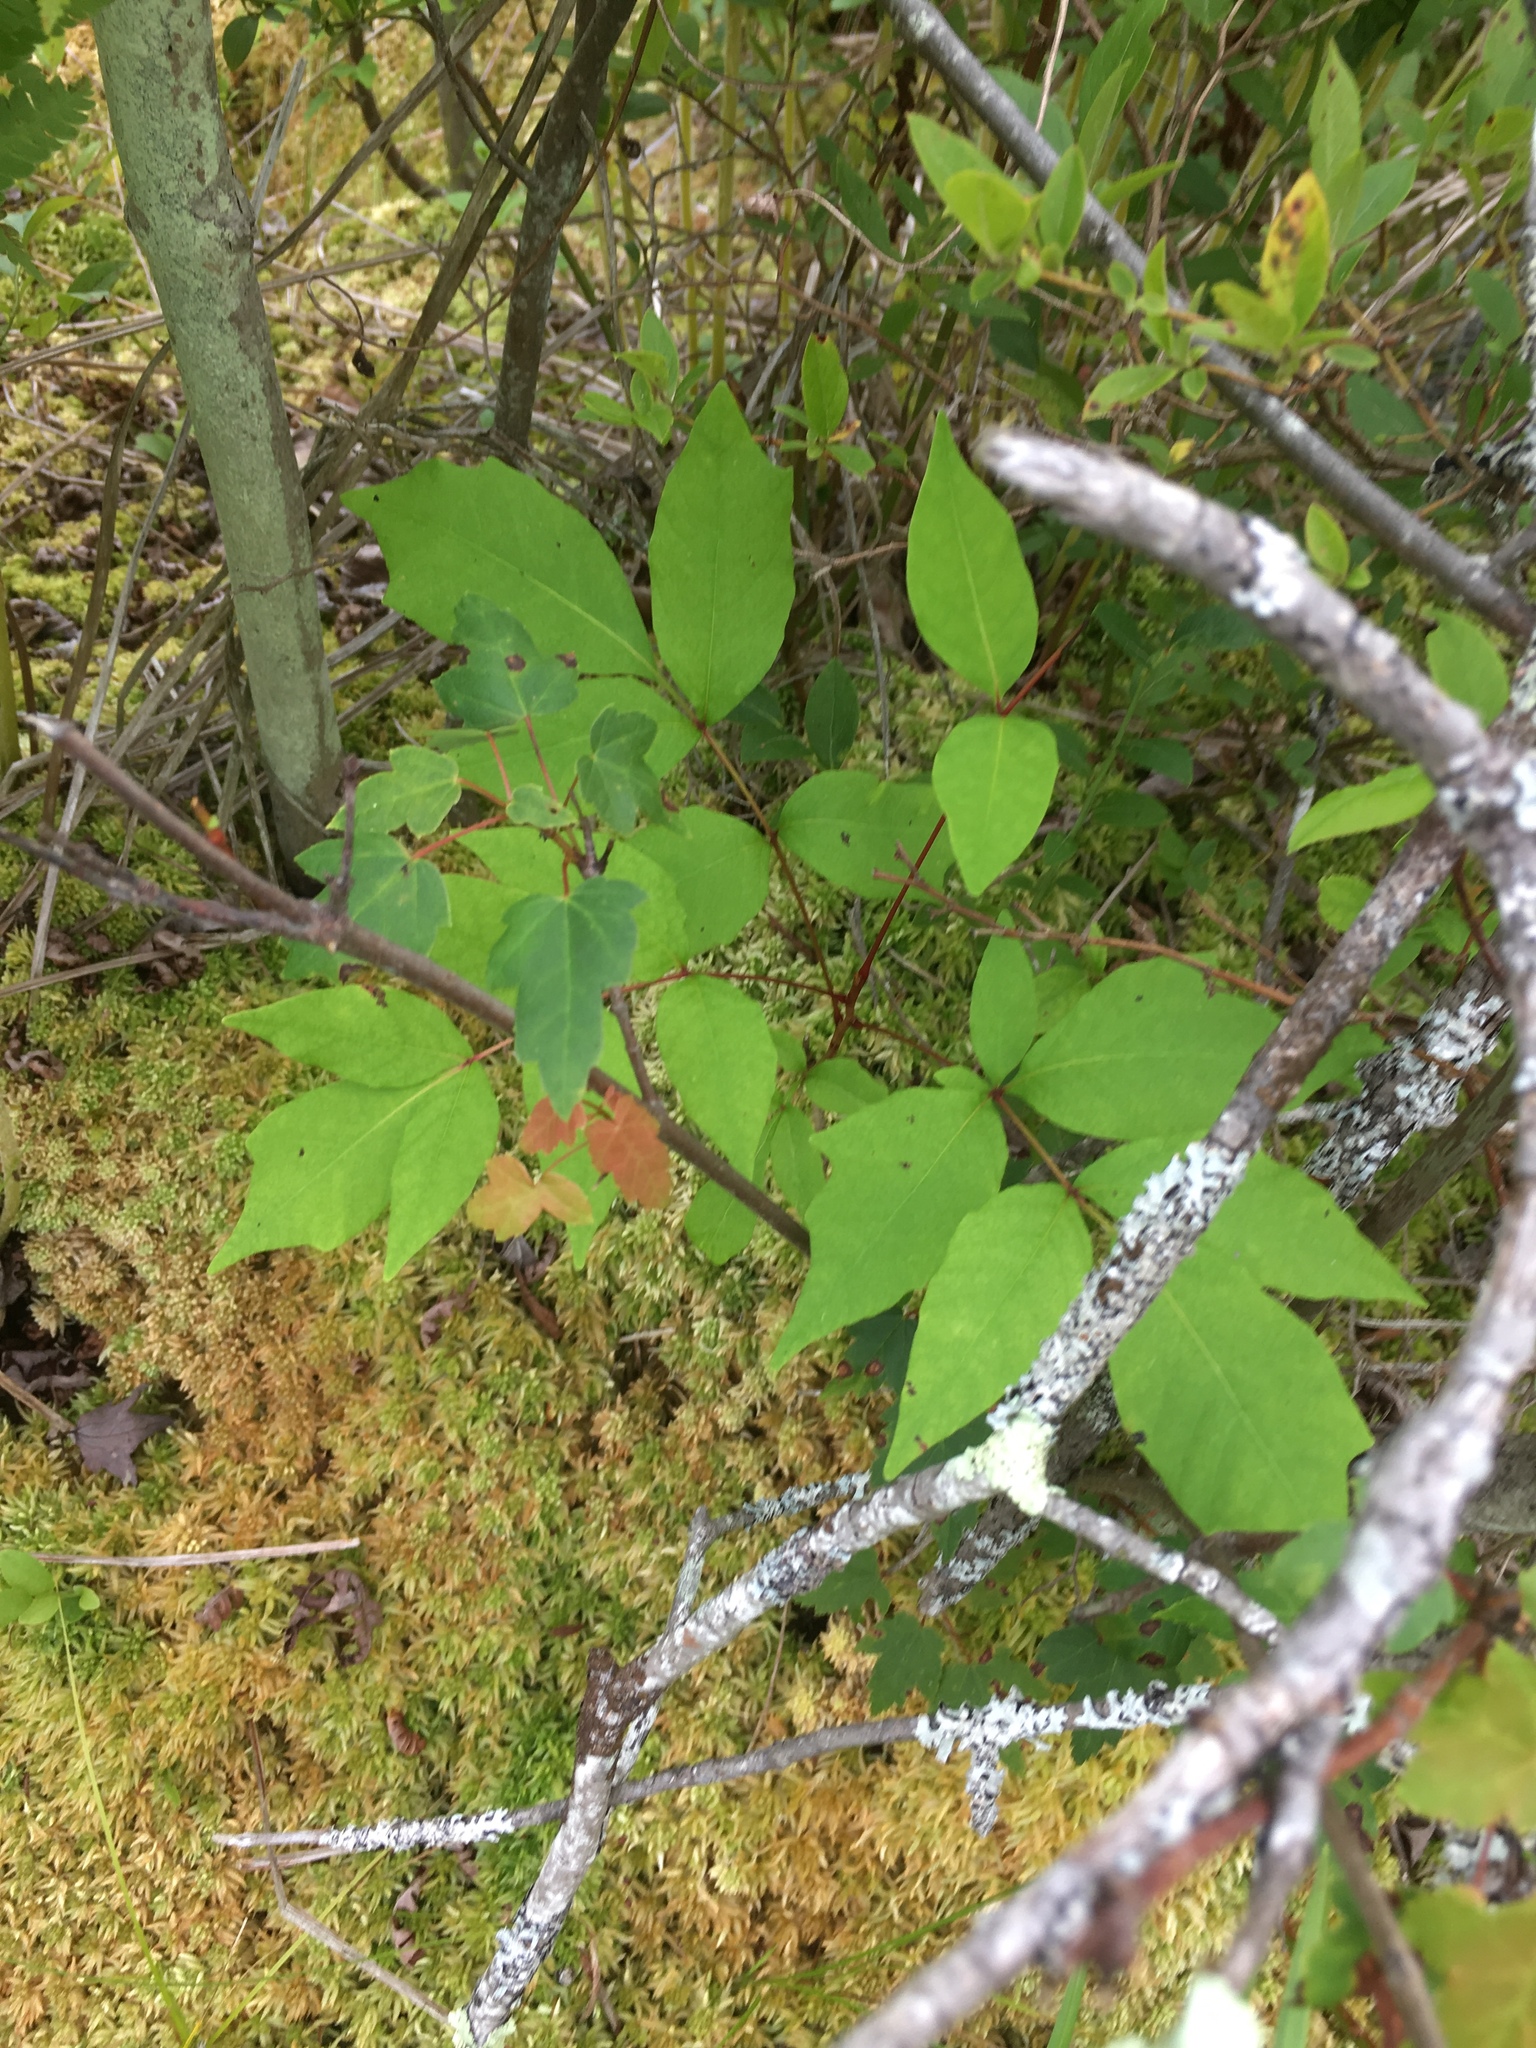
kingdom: Plantae
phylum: Tracheophyta
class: Magnoliopsida
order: Sapindales
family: Anacardiaceae
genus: Toxicodendron
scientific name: Toxicodendron vernix
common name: Poison sumac
